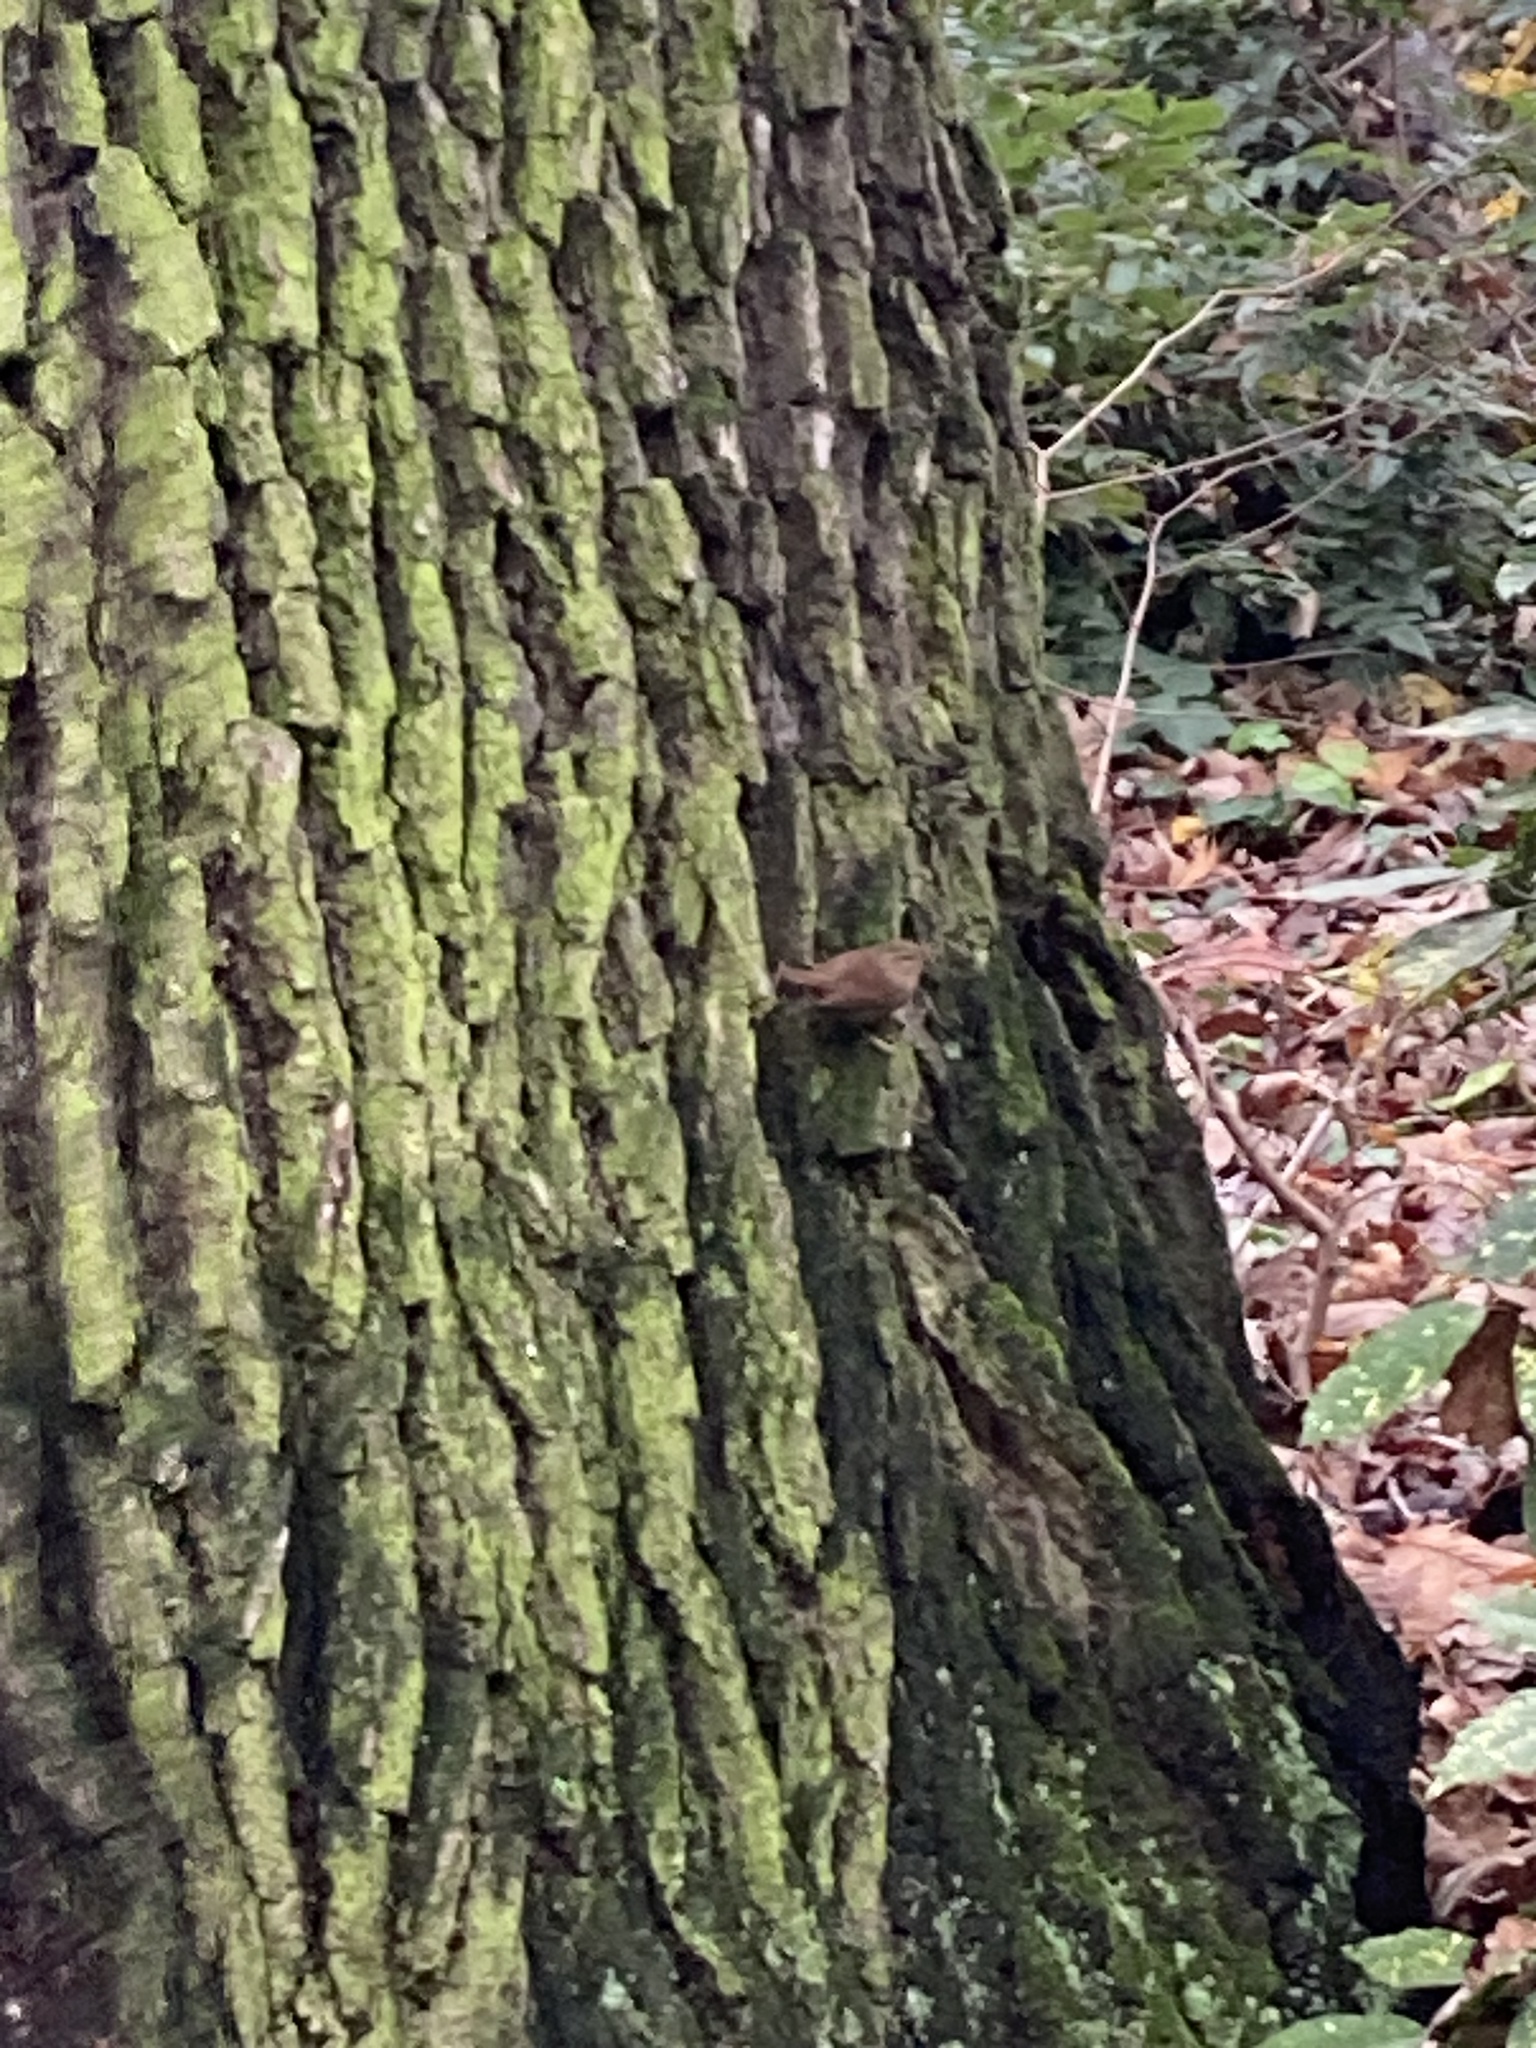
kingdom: Animalia
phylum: Chordata
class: Aves
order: Passeriformes
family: Troglodytidae
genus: Troglodytes
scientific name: Troglodytes troglodytes
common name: Eurasian wren
